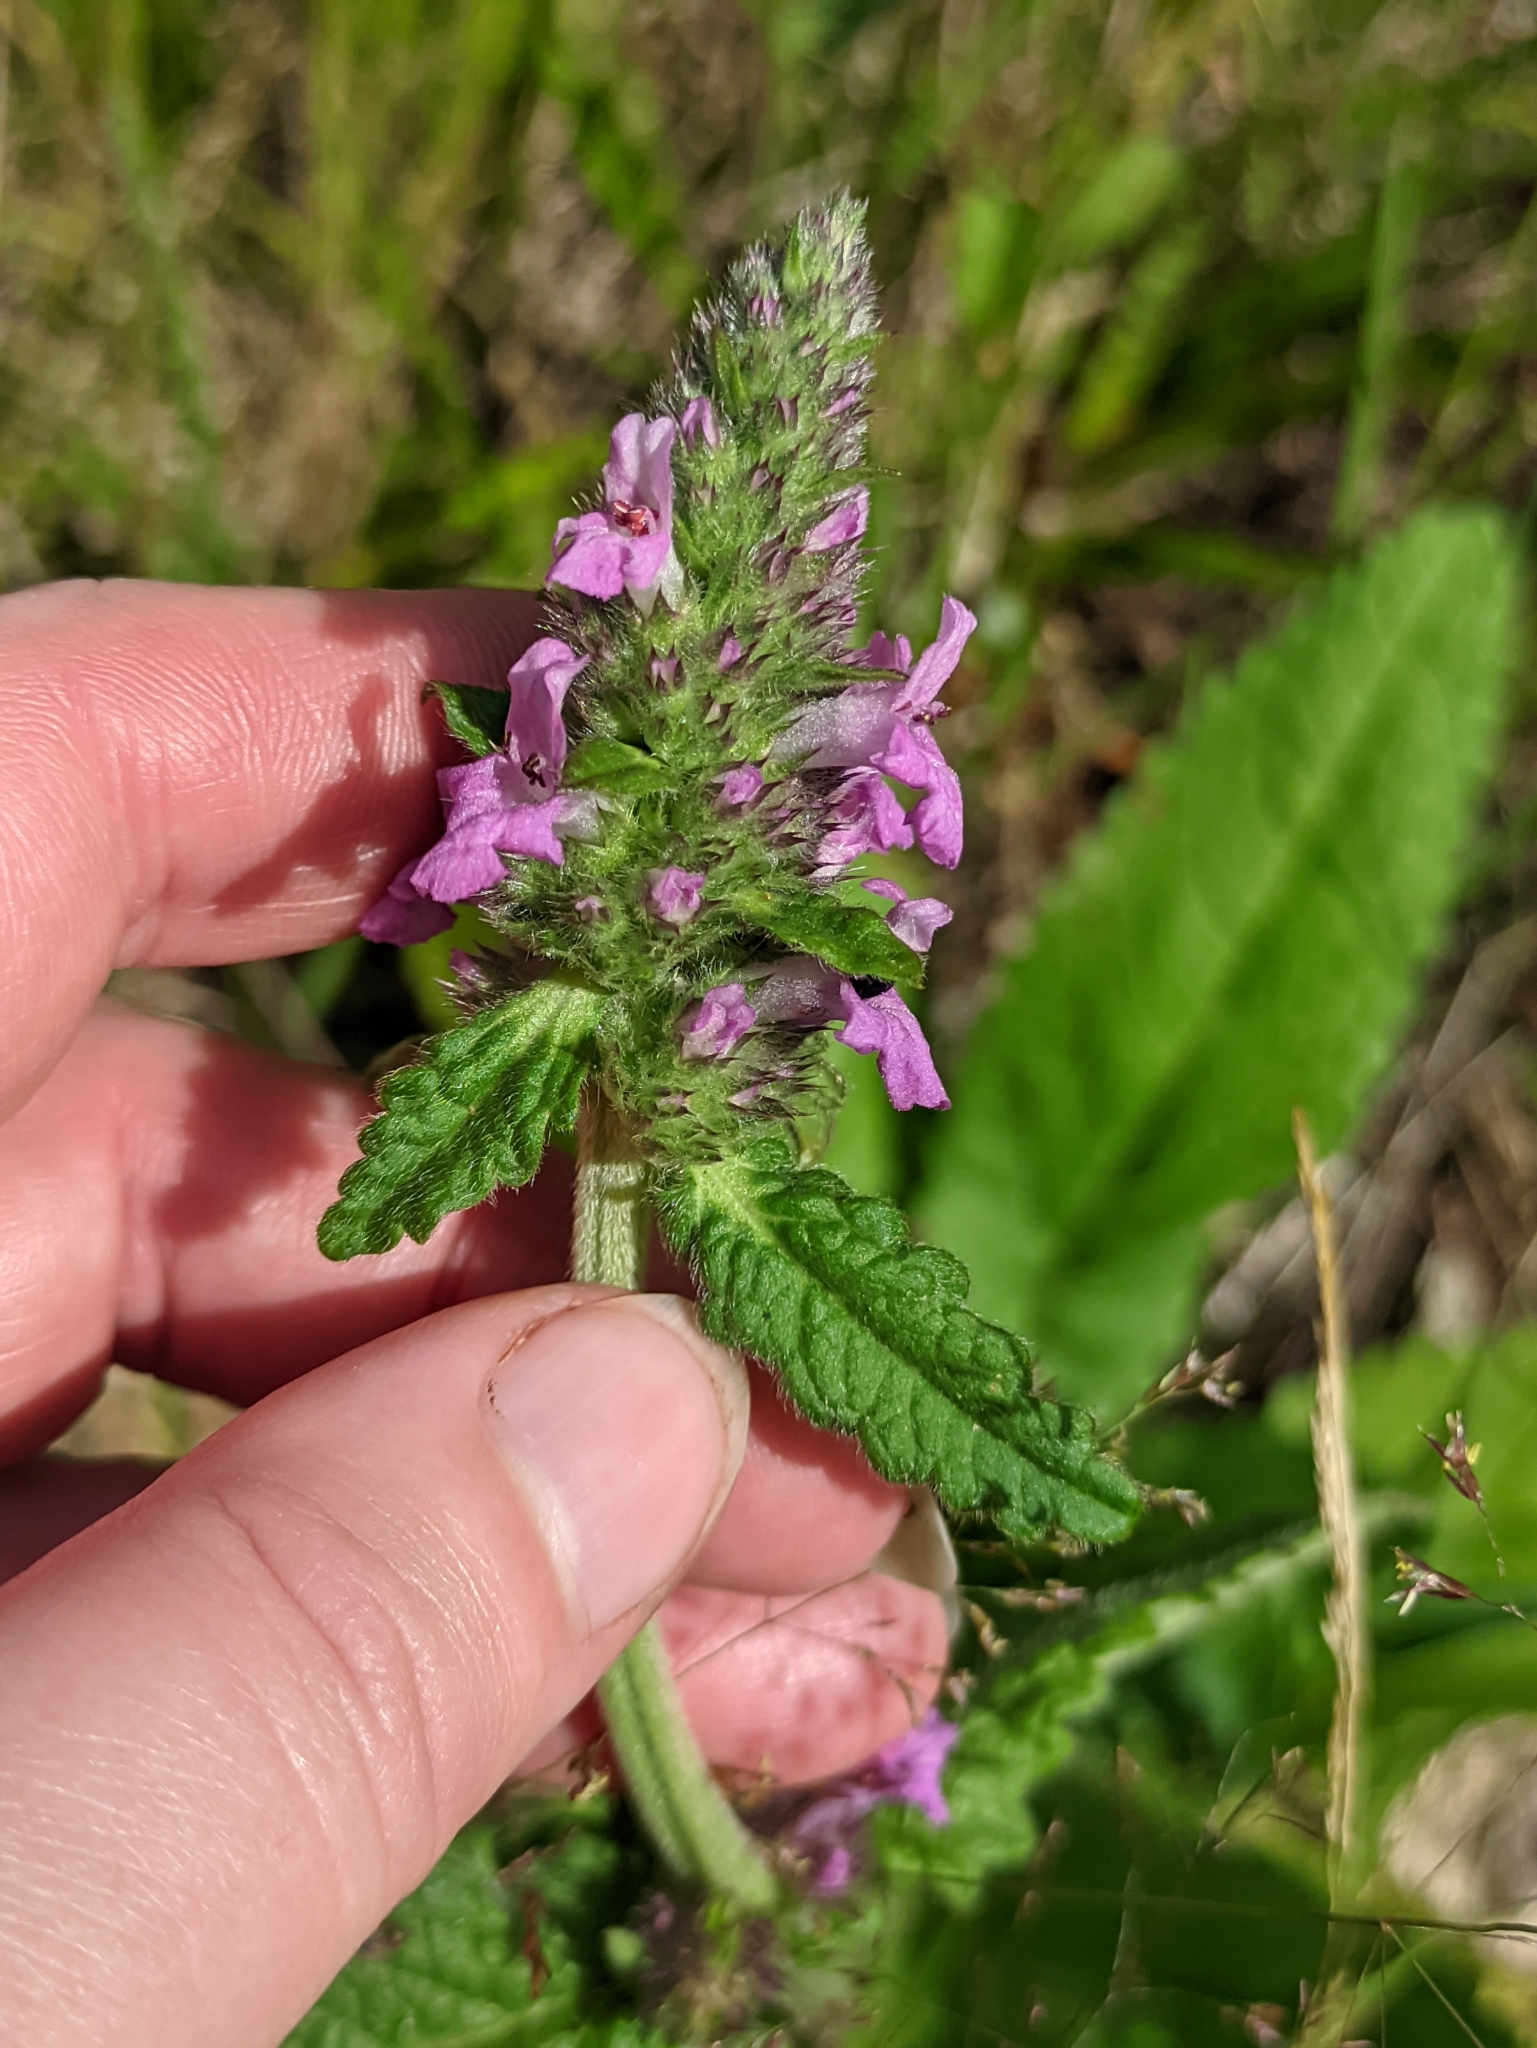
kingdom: Plantae
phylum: Tracheophyta
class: Magnoliopsida
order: Lamiales
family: Lamiaceae
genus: Betonica
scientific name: Betonica officinalis
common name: Bishop's-wort
